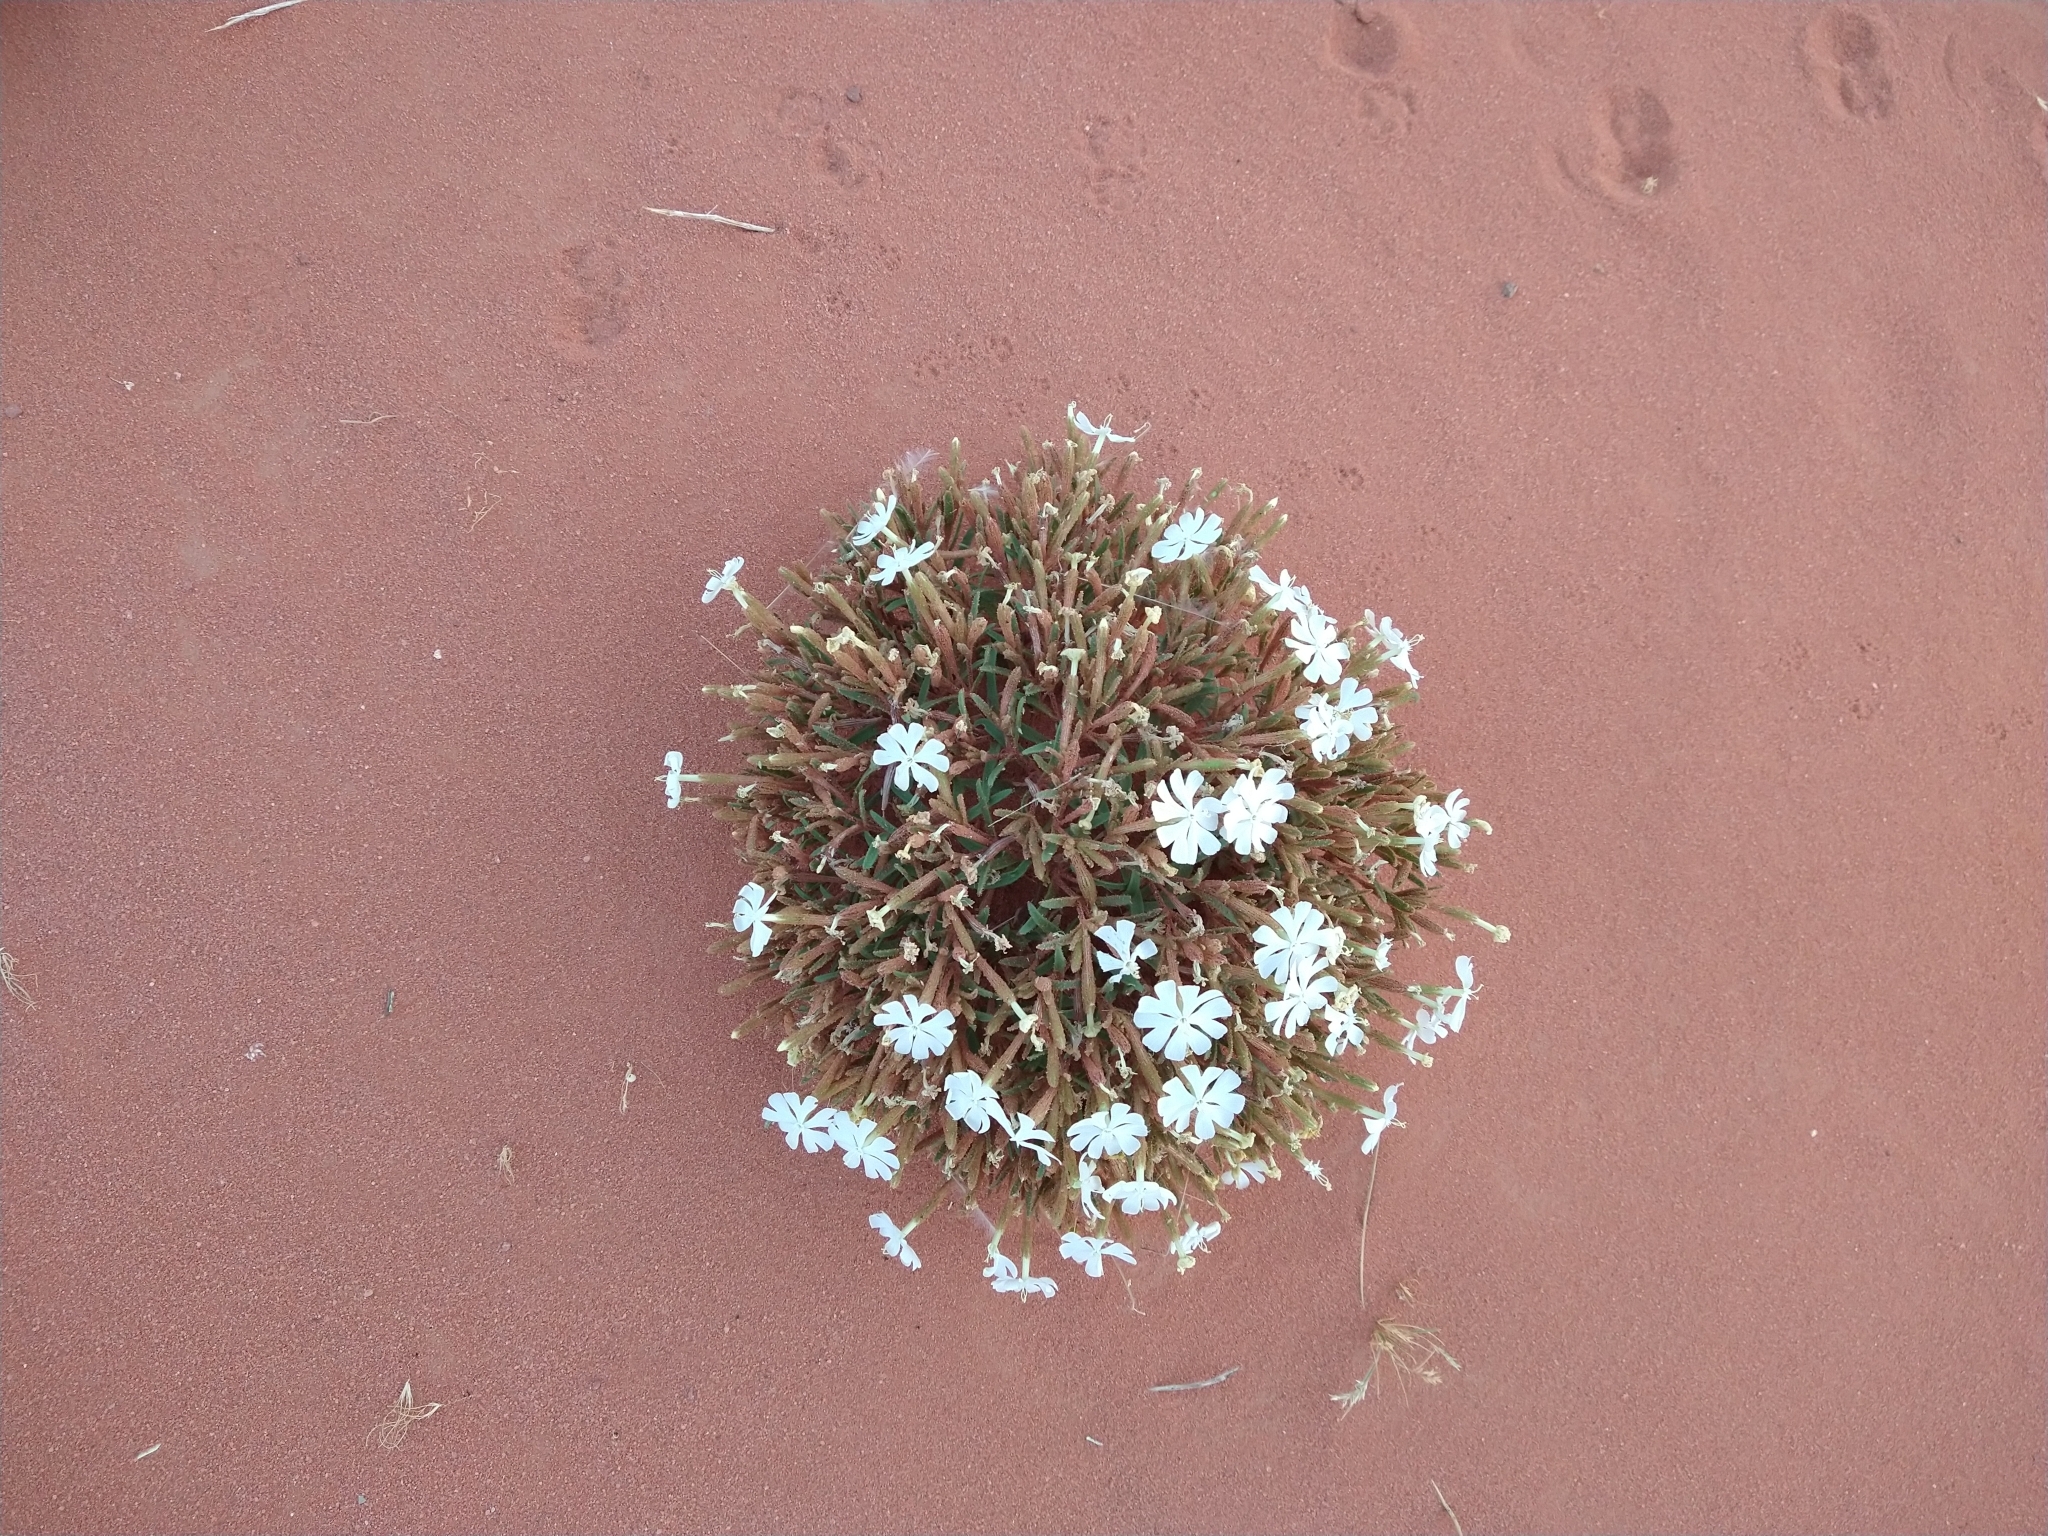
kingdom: Plantae
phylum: Tracheophyta
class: Magnoliopsida
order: Caryophyllales
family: Caryophyllaceae
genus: Silene
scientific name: Silene villosa
